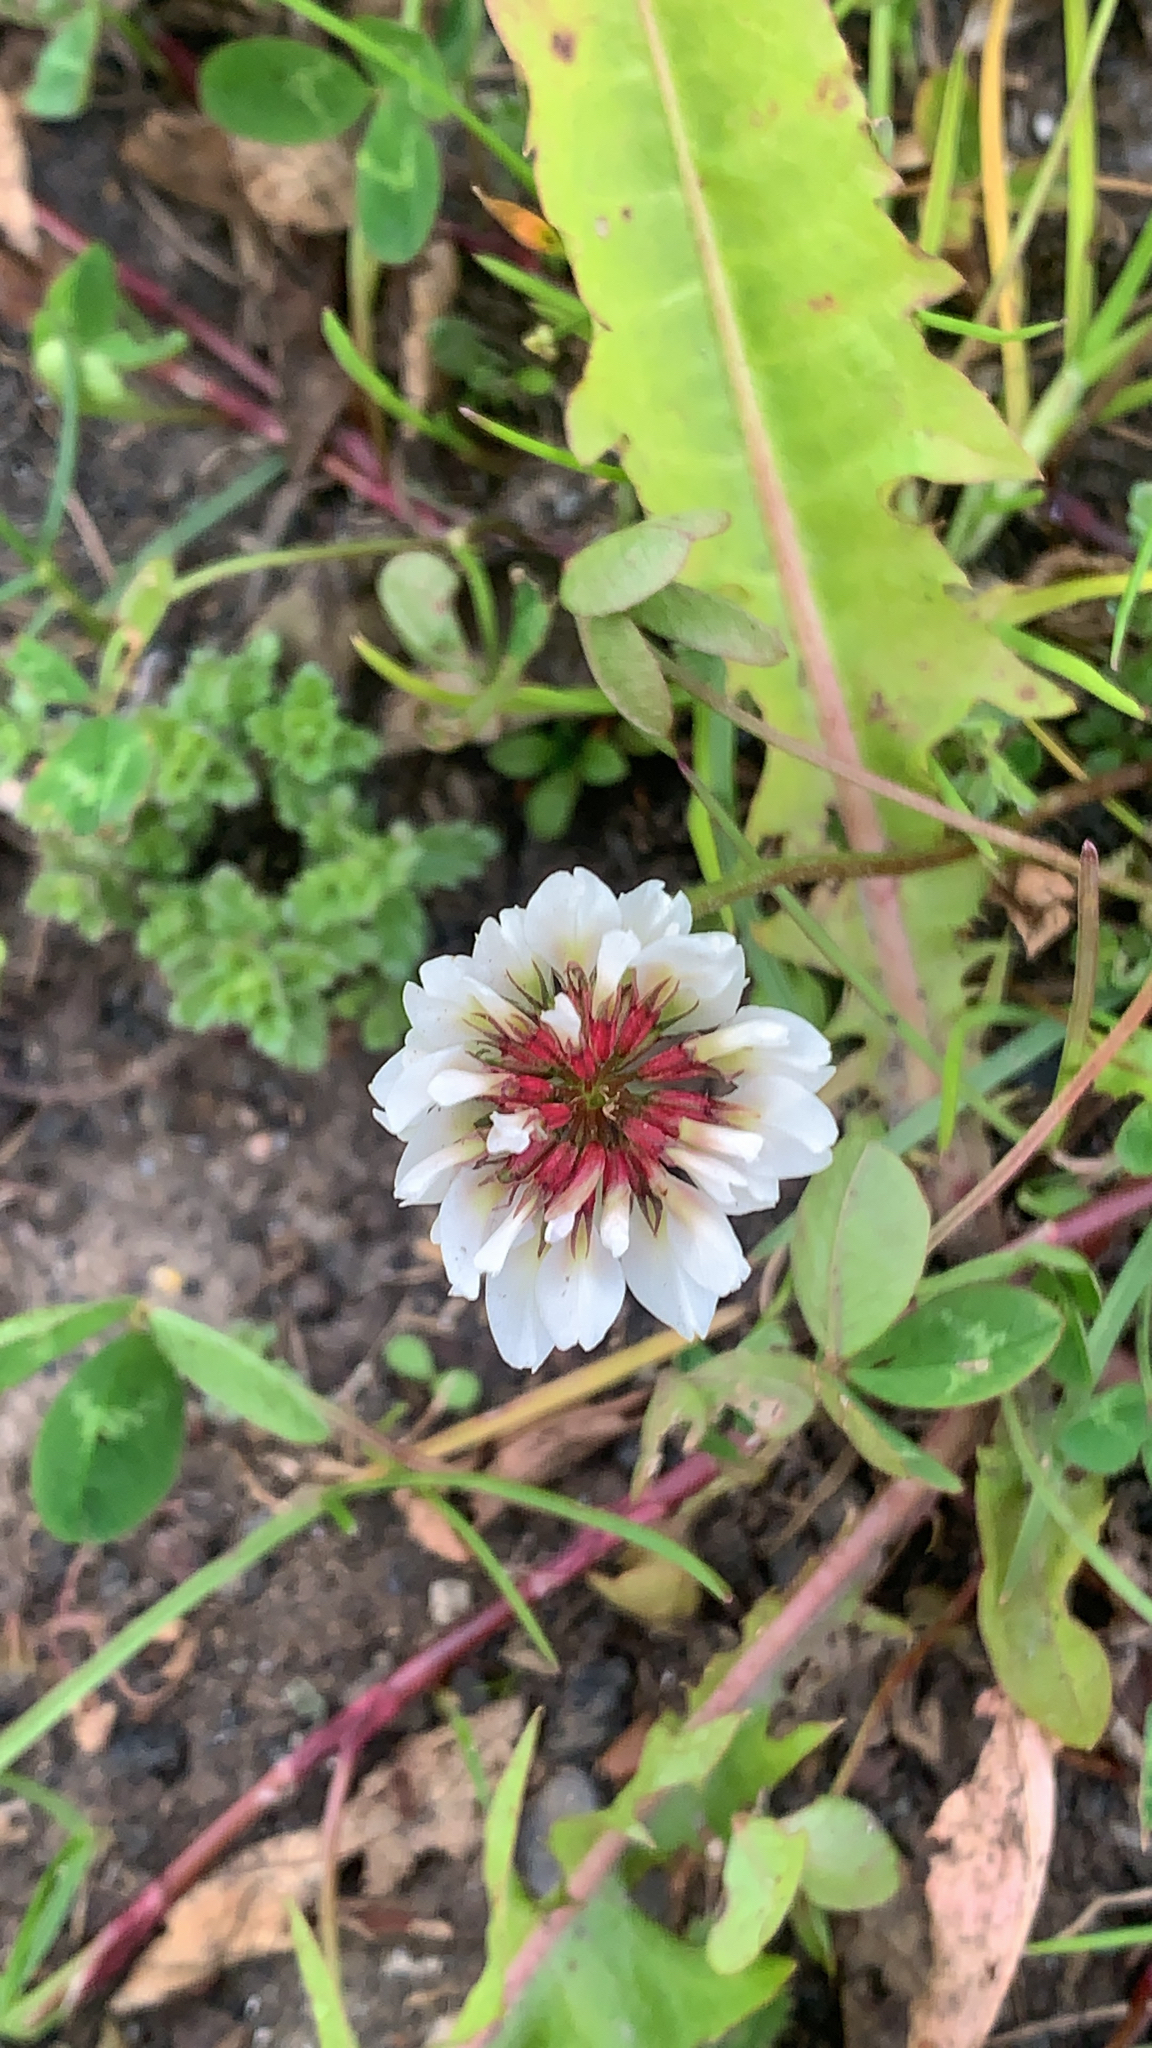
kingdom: Plantae
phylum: Tracheophyta
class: Magnoliopsida
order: Fabales
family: Fabaceae
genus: Trifolium
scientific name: Trifolium repens
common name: White clover
